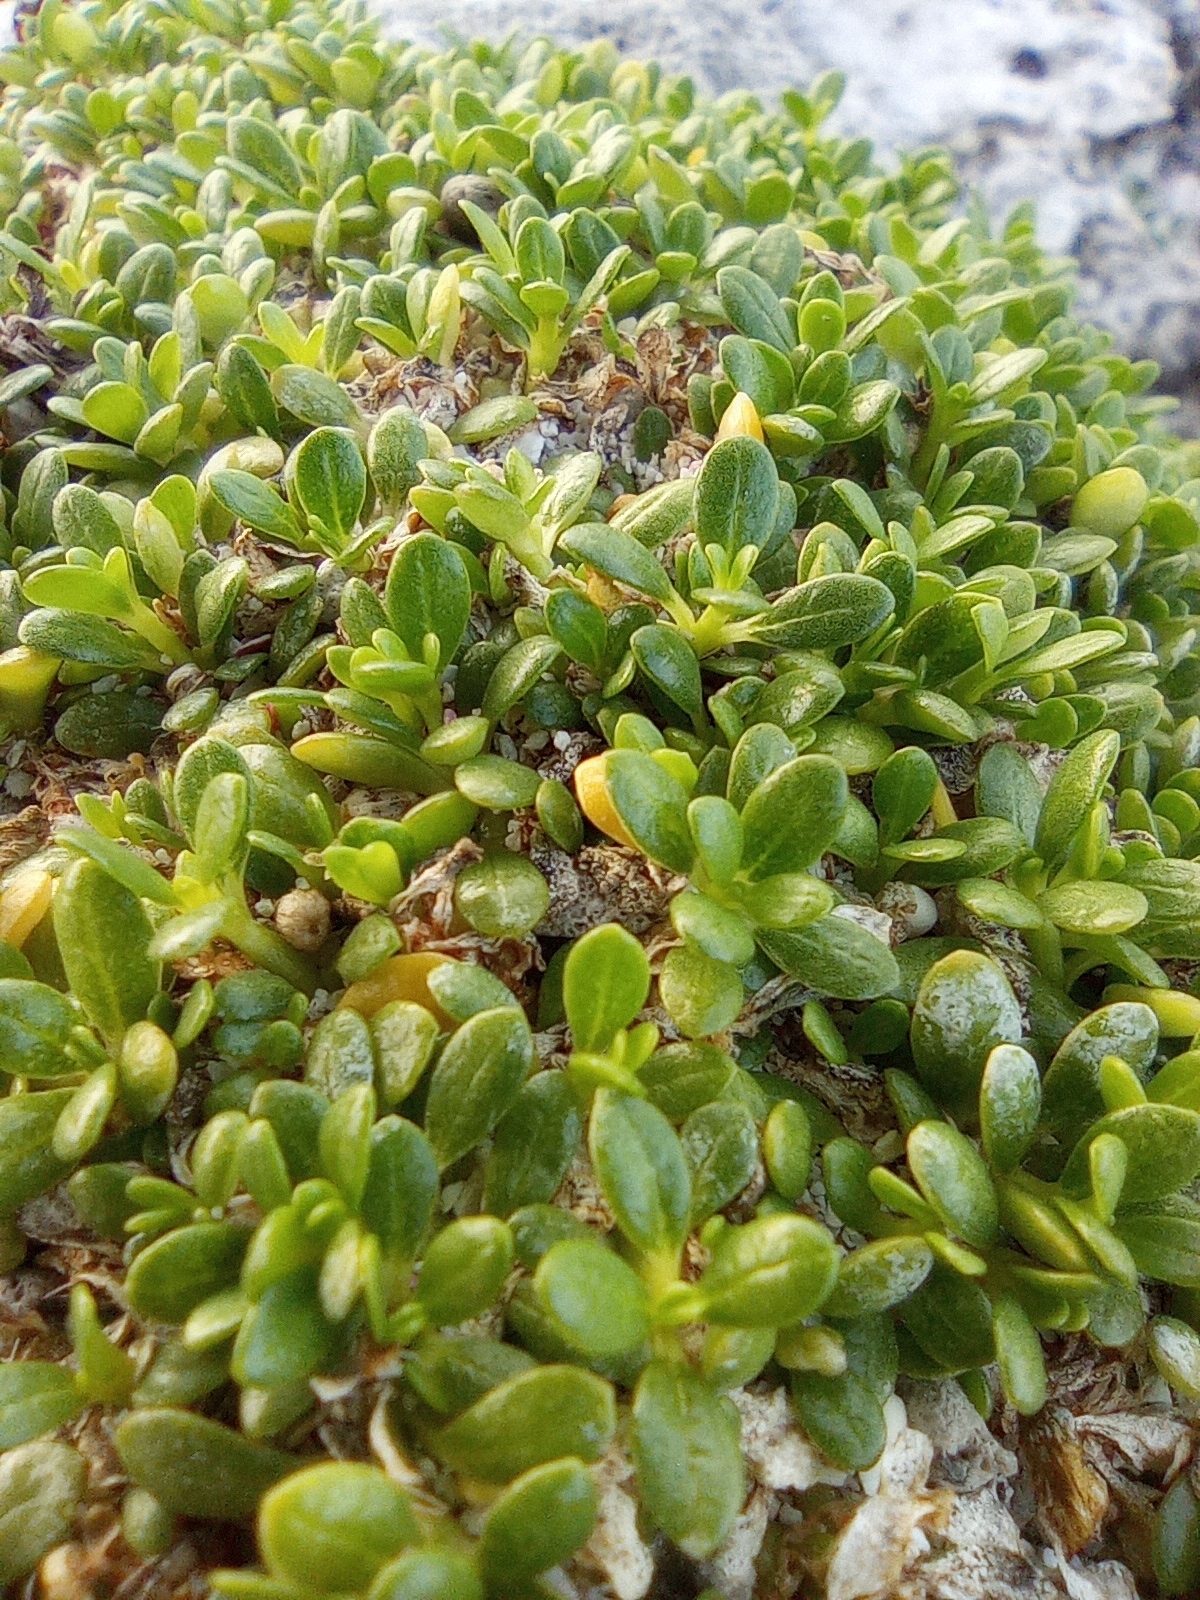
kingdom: Plantae
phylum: Tracheophyta
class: Magnoliopsida
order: Caryophyllales
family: Amaranthaceae
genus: Gomphrena
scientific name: Gomphrena wrightii
